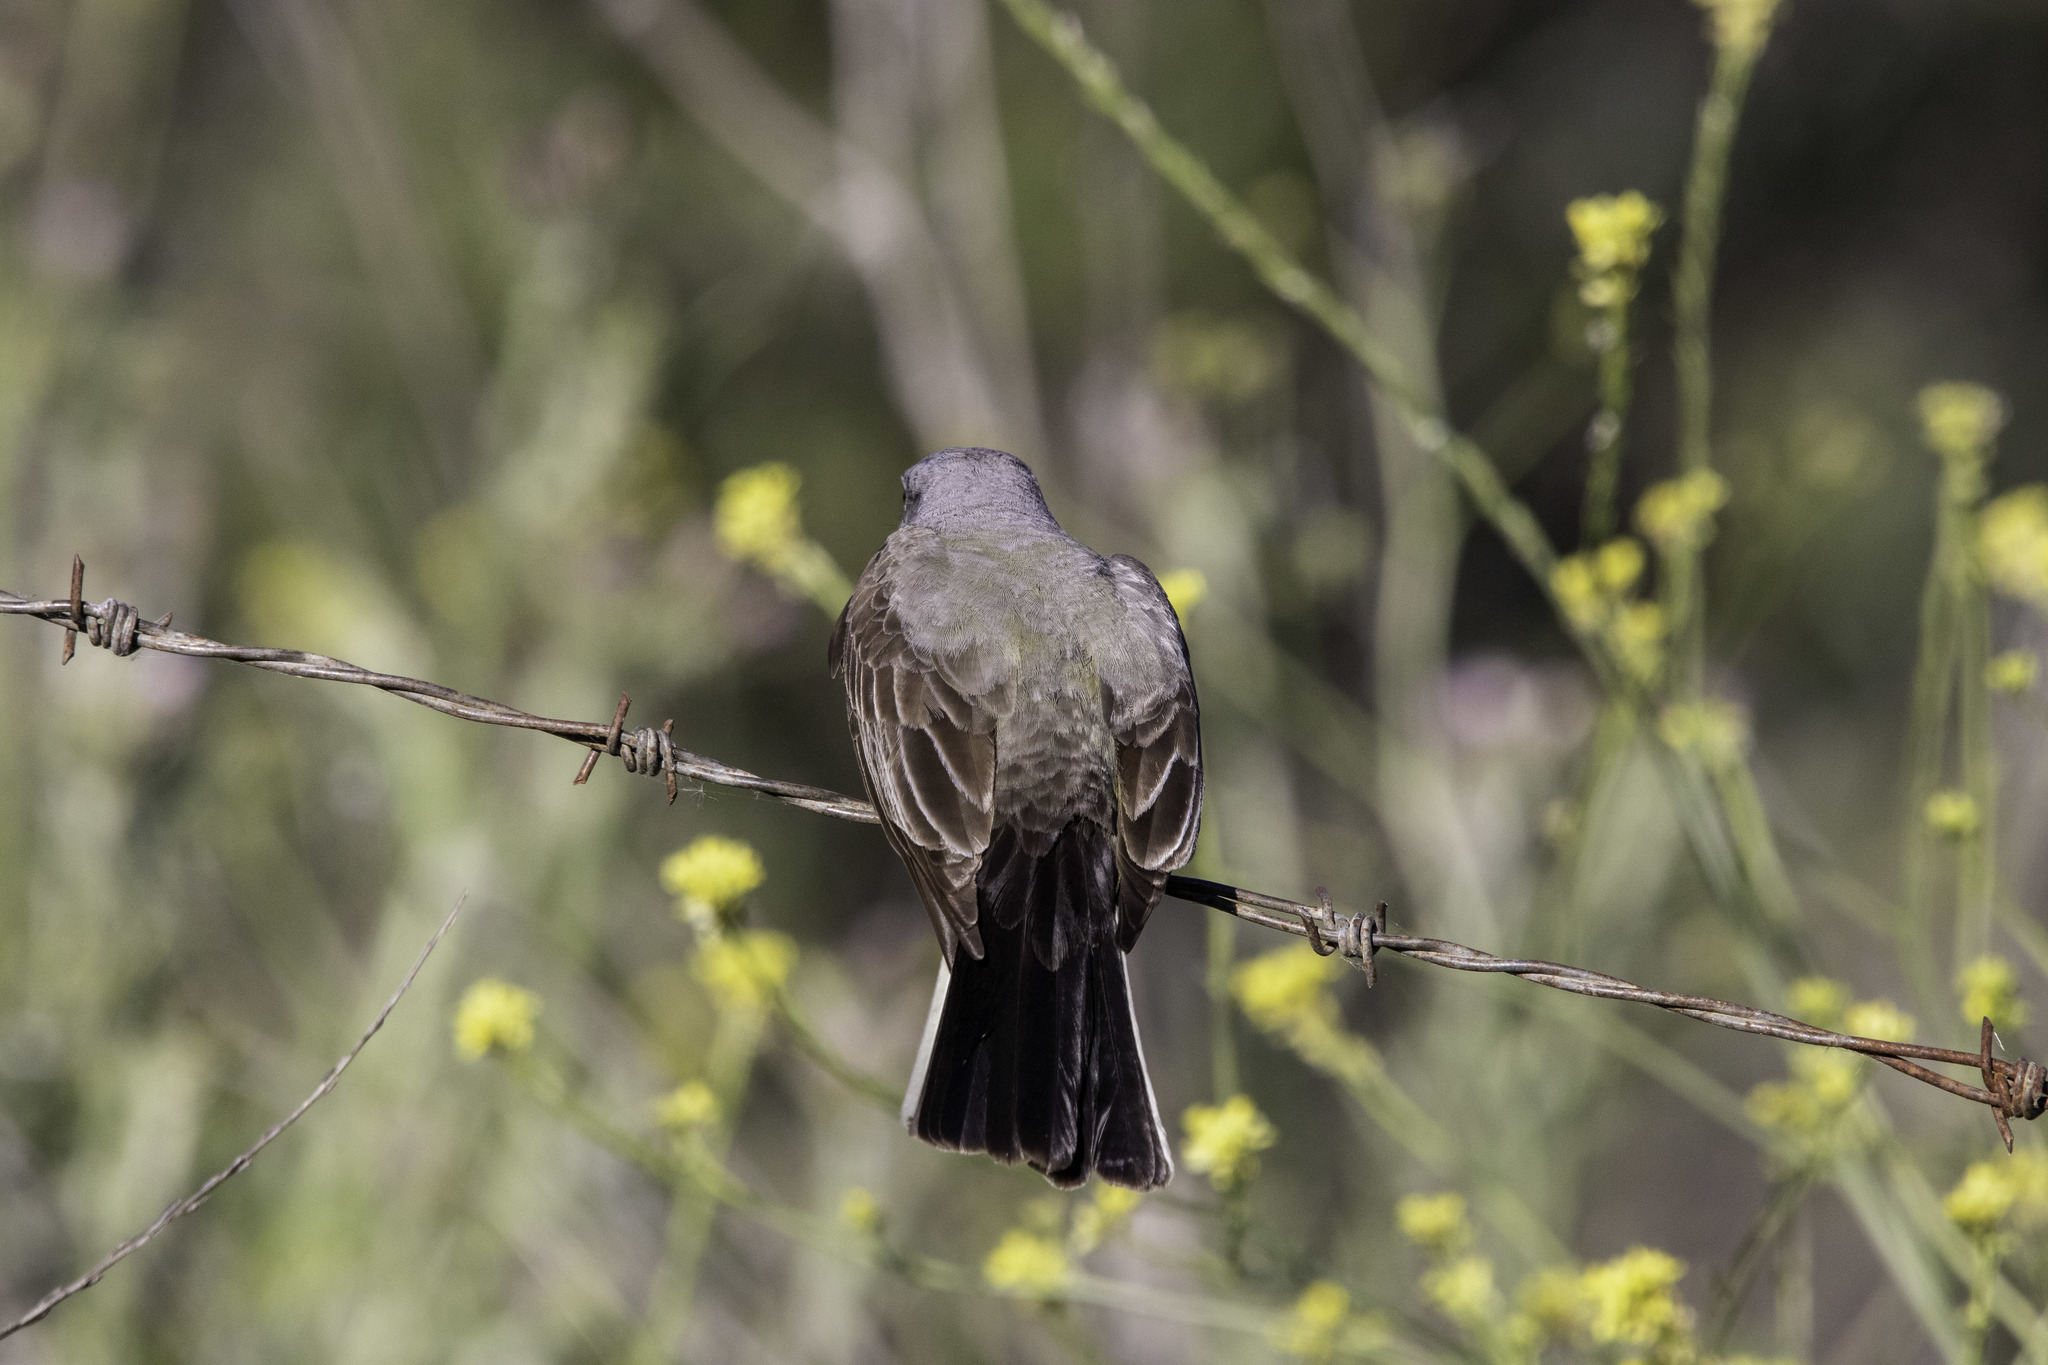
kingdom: Animalia
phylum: Chordata
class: Aves
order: Passeriformes
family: Tyrannidae
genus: Tyrannus
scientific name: Tyrannus verticalis
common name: Western kingbird
